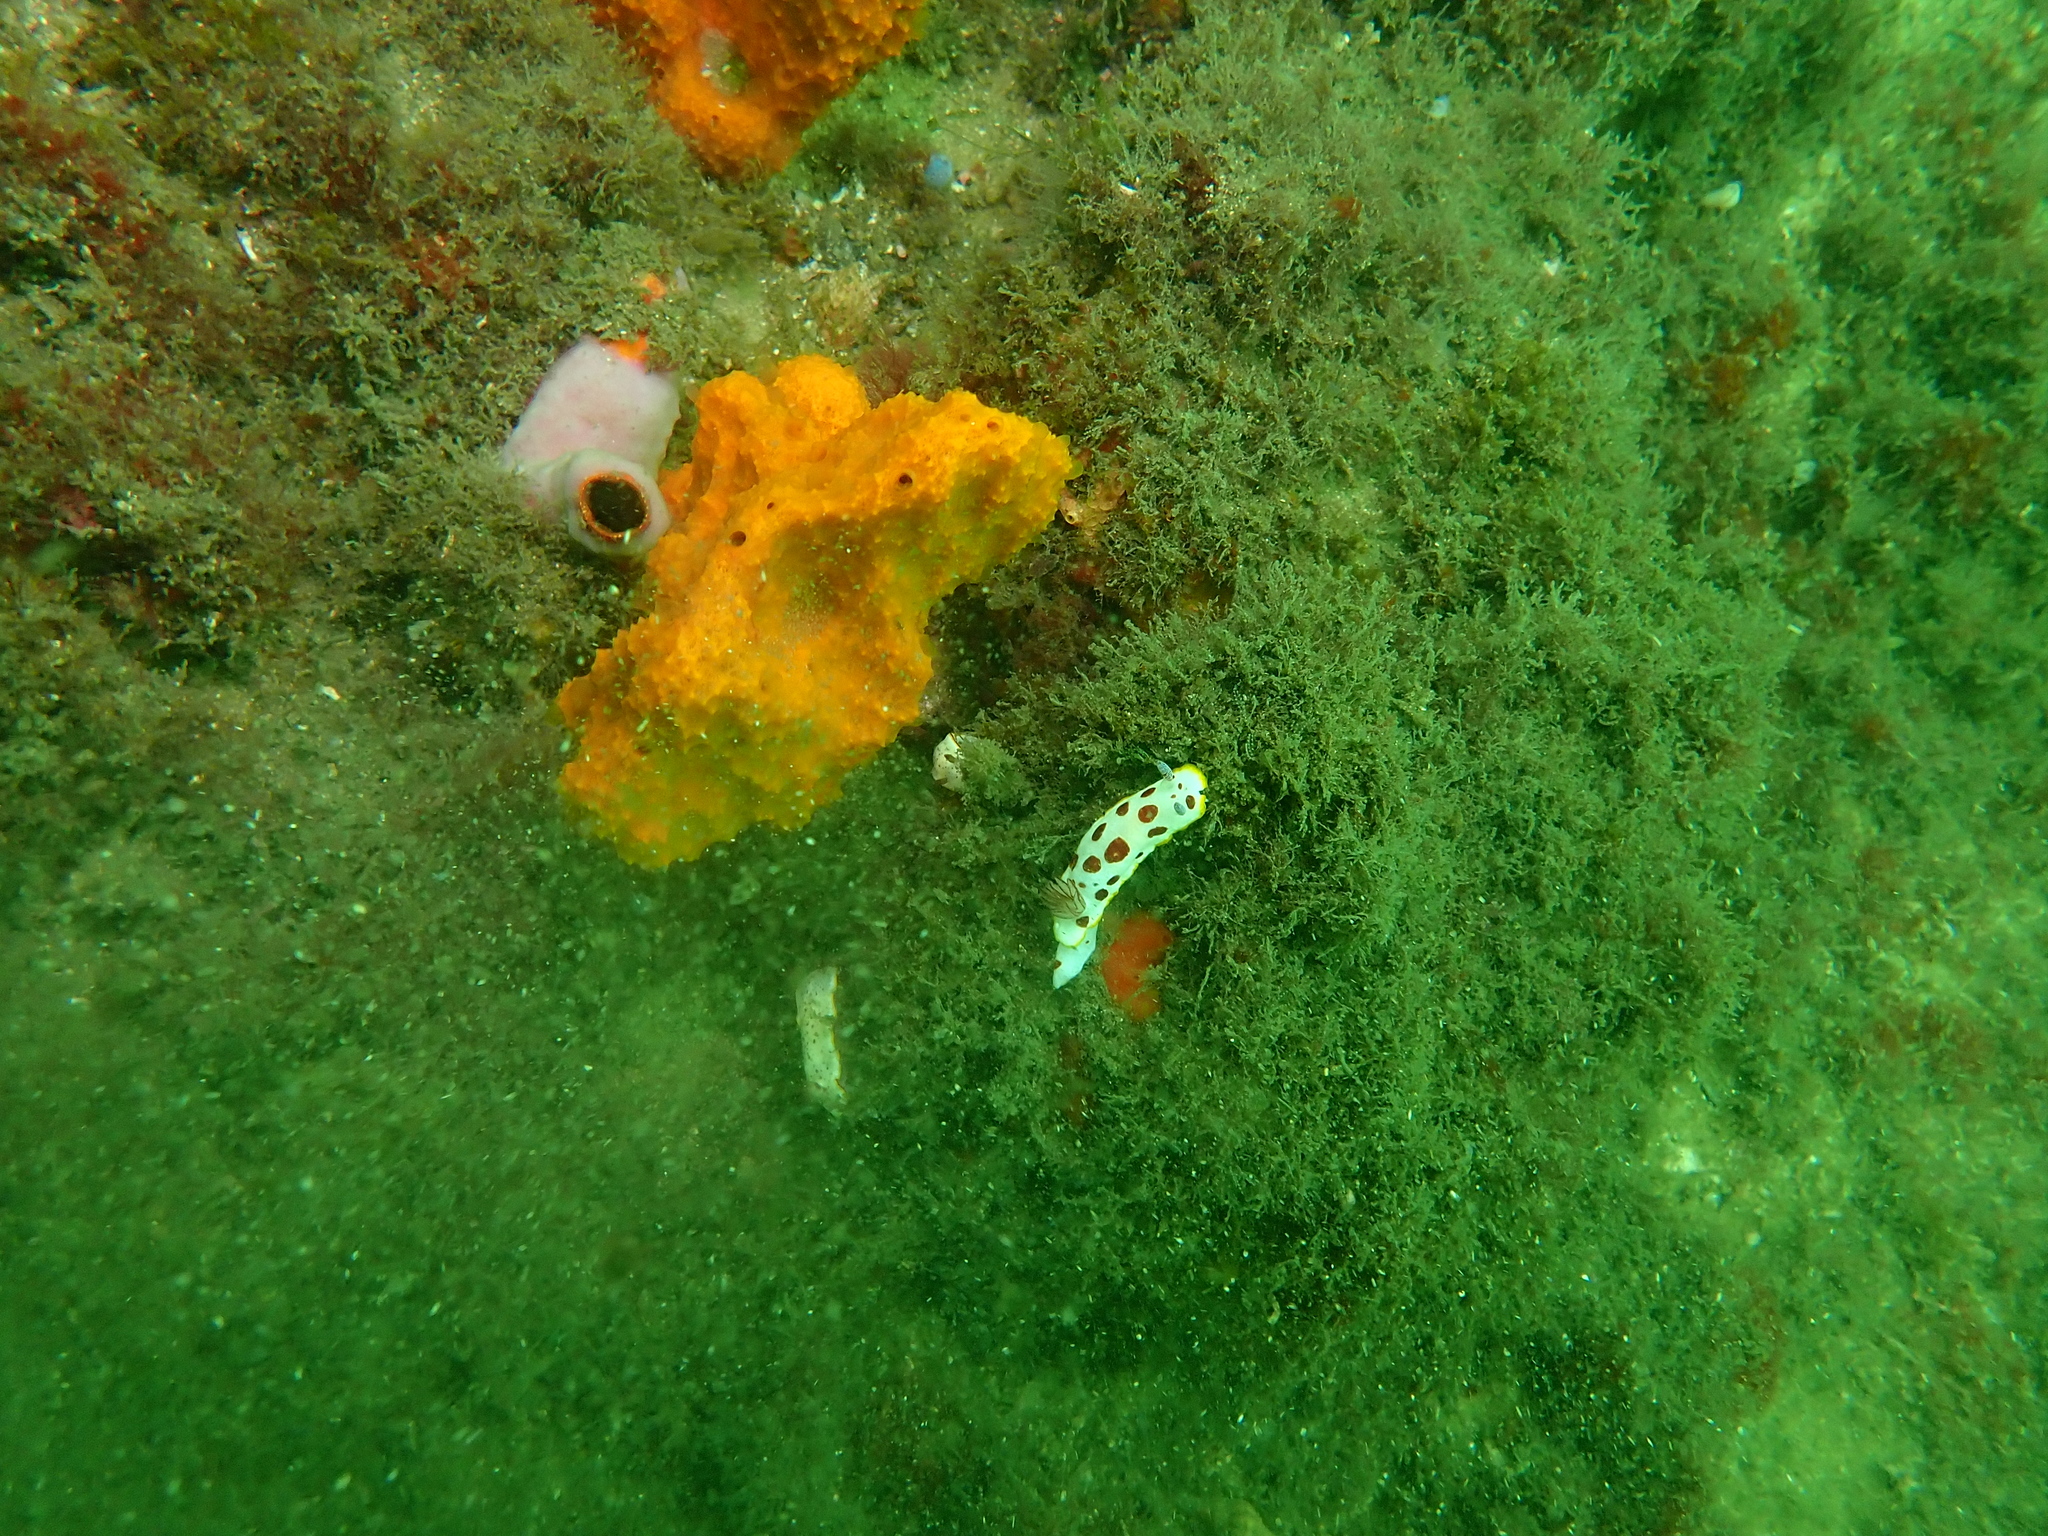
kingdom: Animalia
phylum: Chordata
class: Ascidiacea
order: Stolidobranchia
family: Styelidae
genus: Cnemidocarpa
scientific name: Cnemidocarpa pedata
